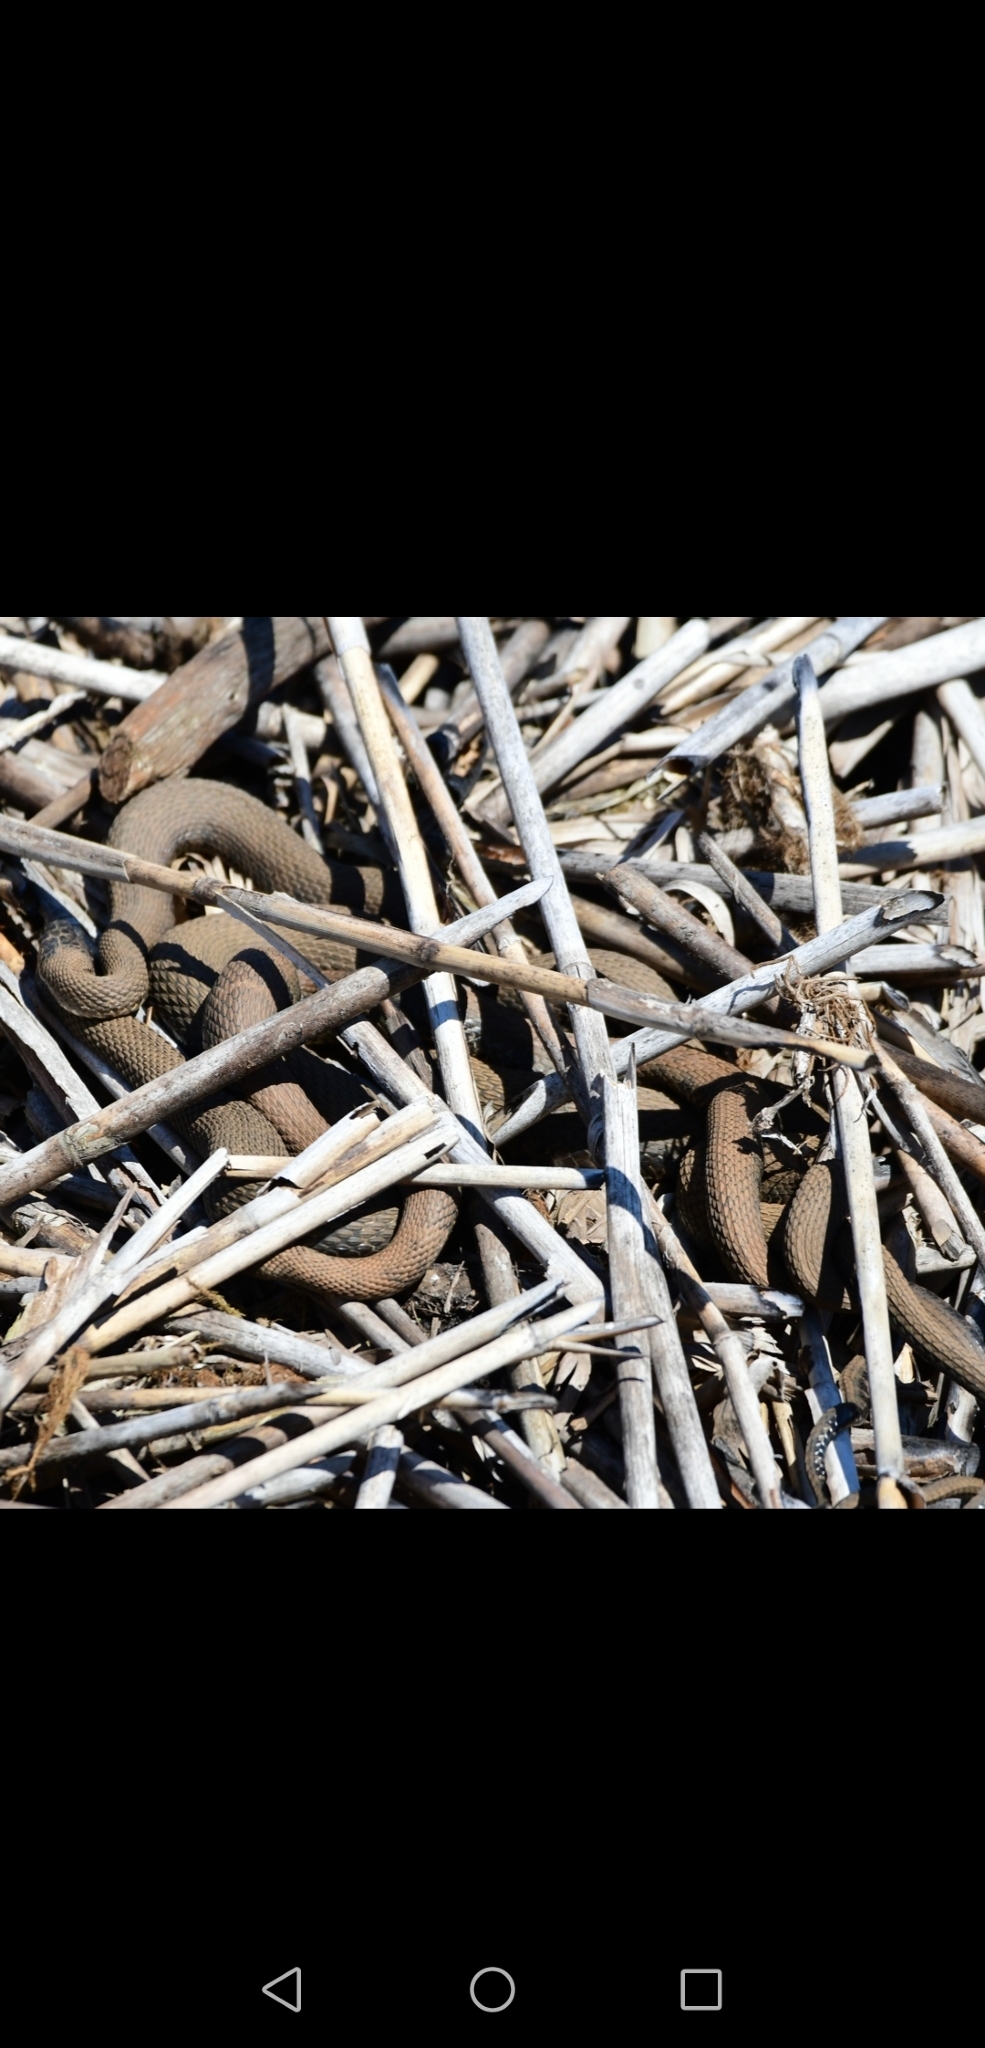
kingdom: Animalia
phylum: Chordata
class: Squamata
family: Colubridae
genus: Nerodia
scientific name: Nerodia sipedon
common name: Northern water snake
